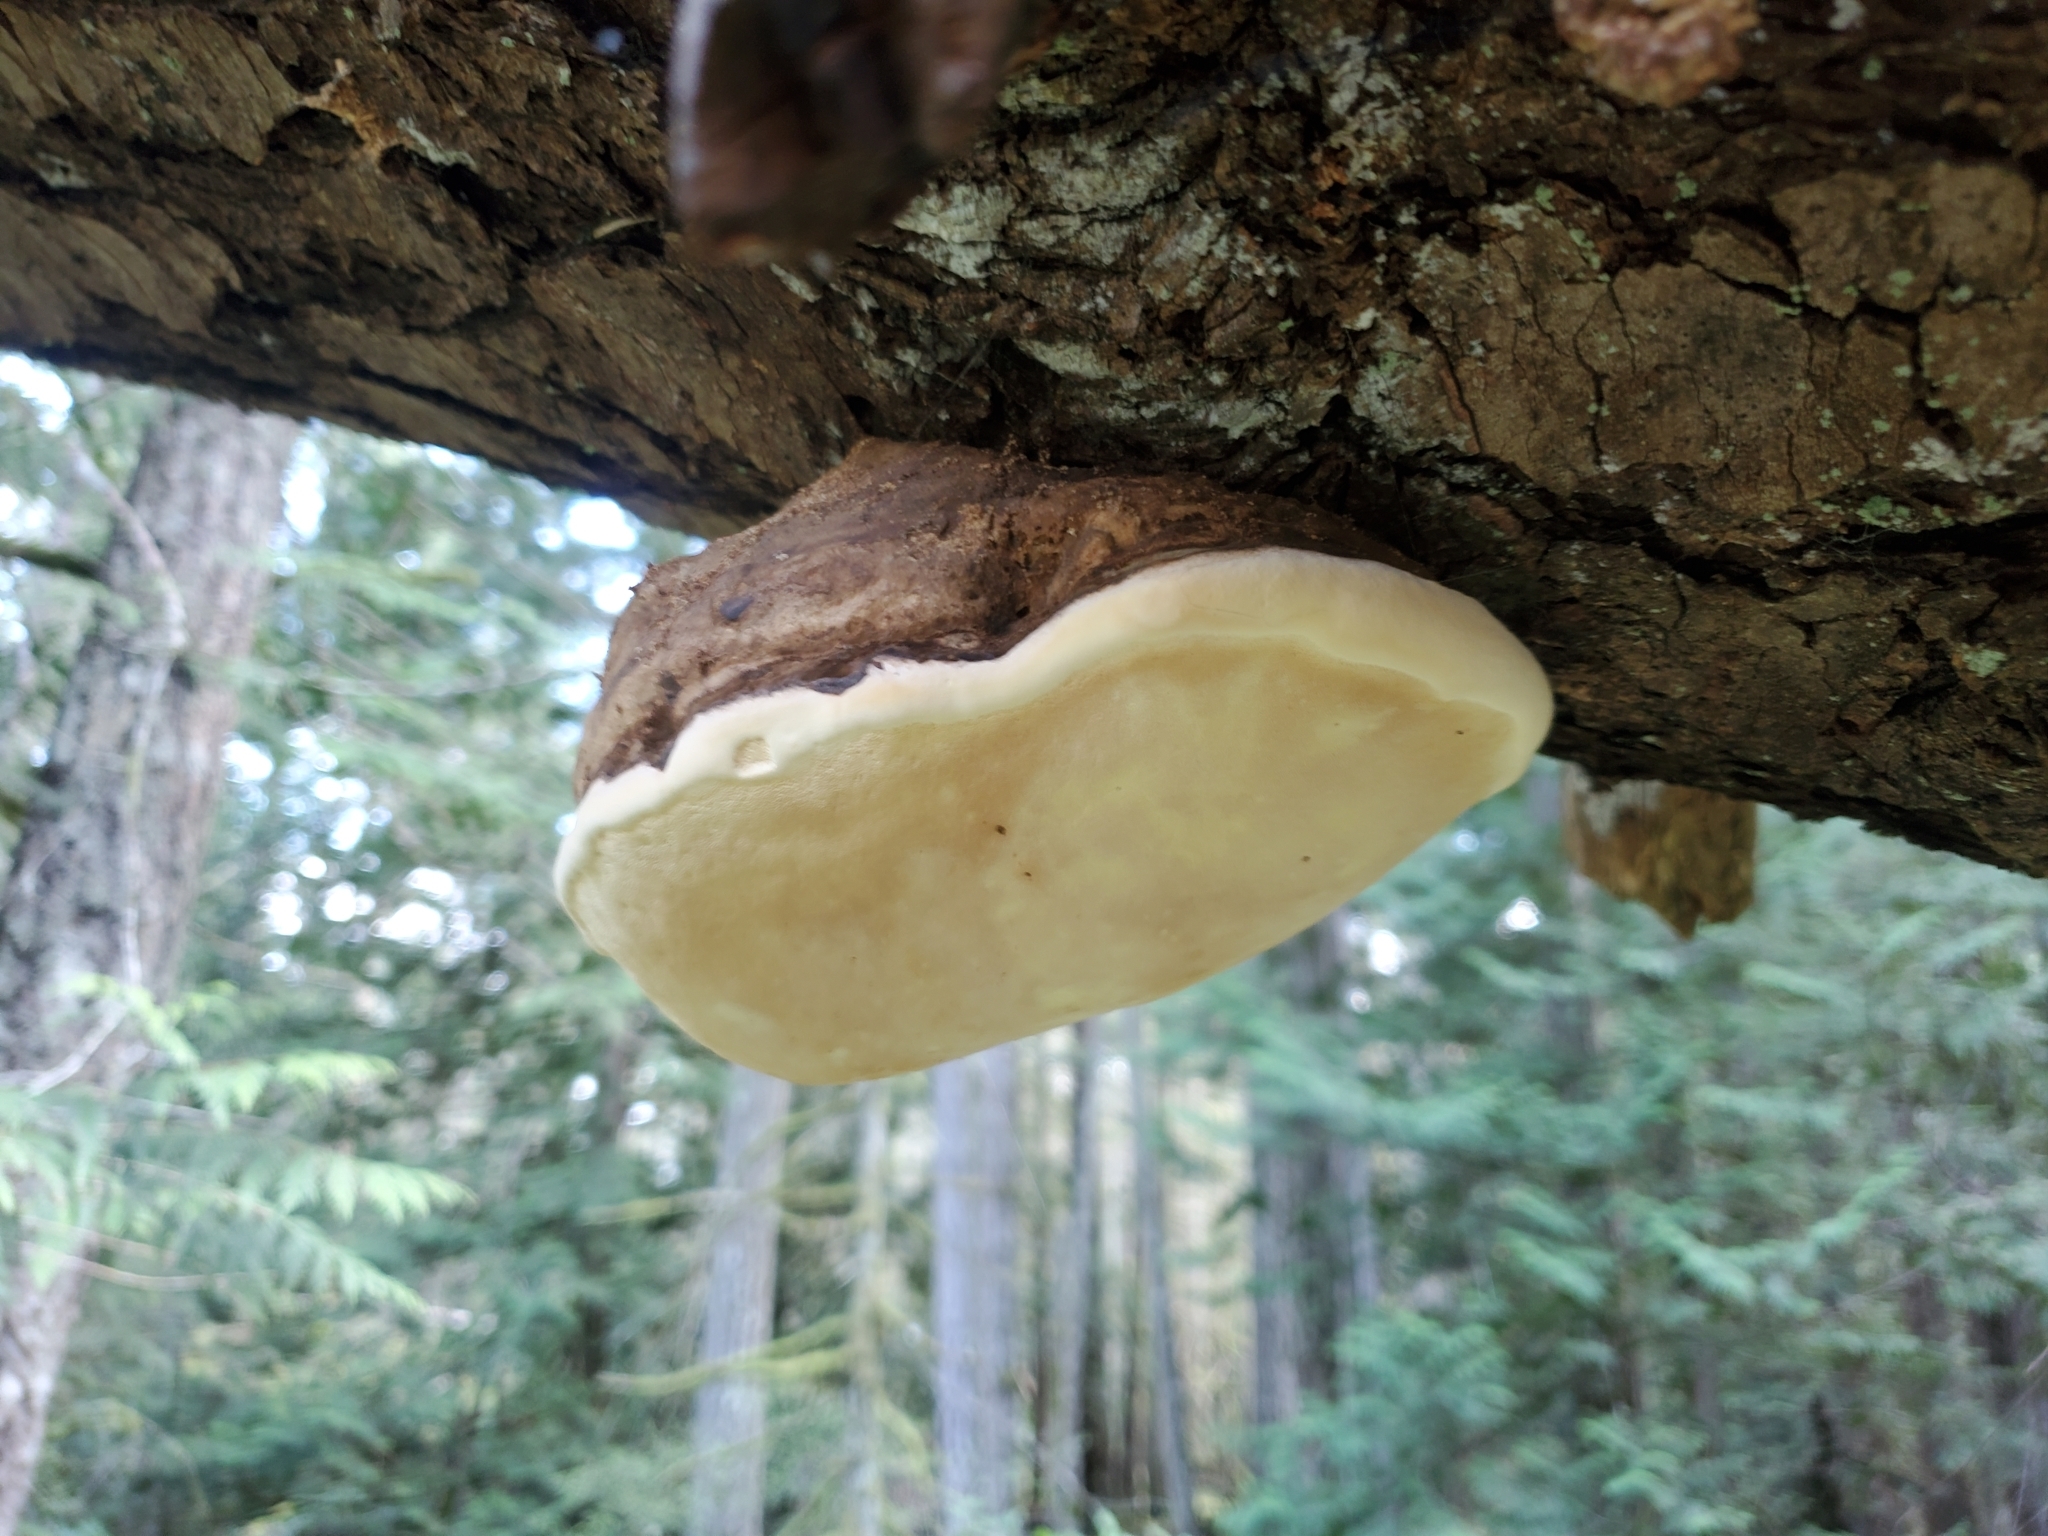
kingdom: Fungi
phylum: Basidiomycota
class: Agaricomycetes
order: Polyporales
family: Fomitopsidaceae
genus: Fomitopsis
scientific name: Fomitopsis ochracea
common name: American brown fomitopsis
